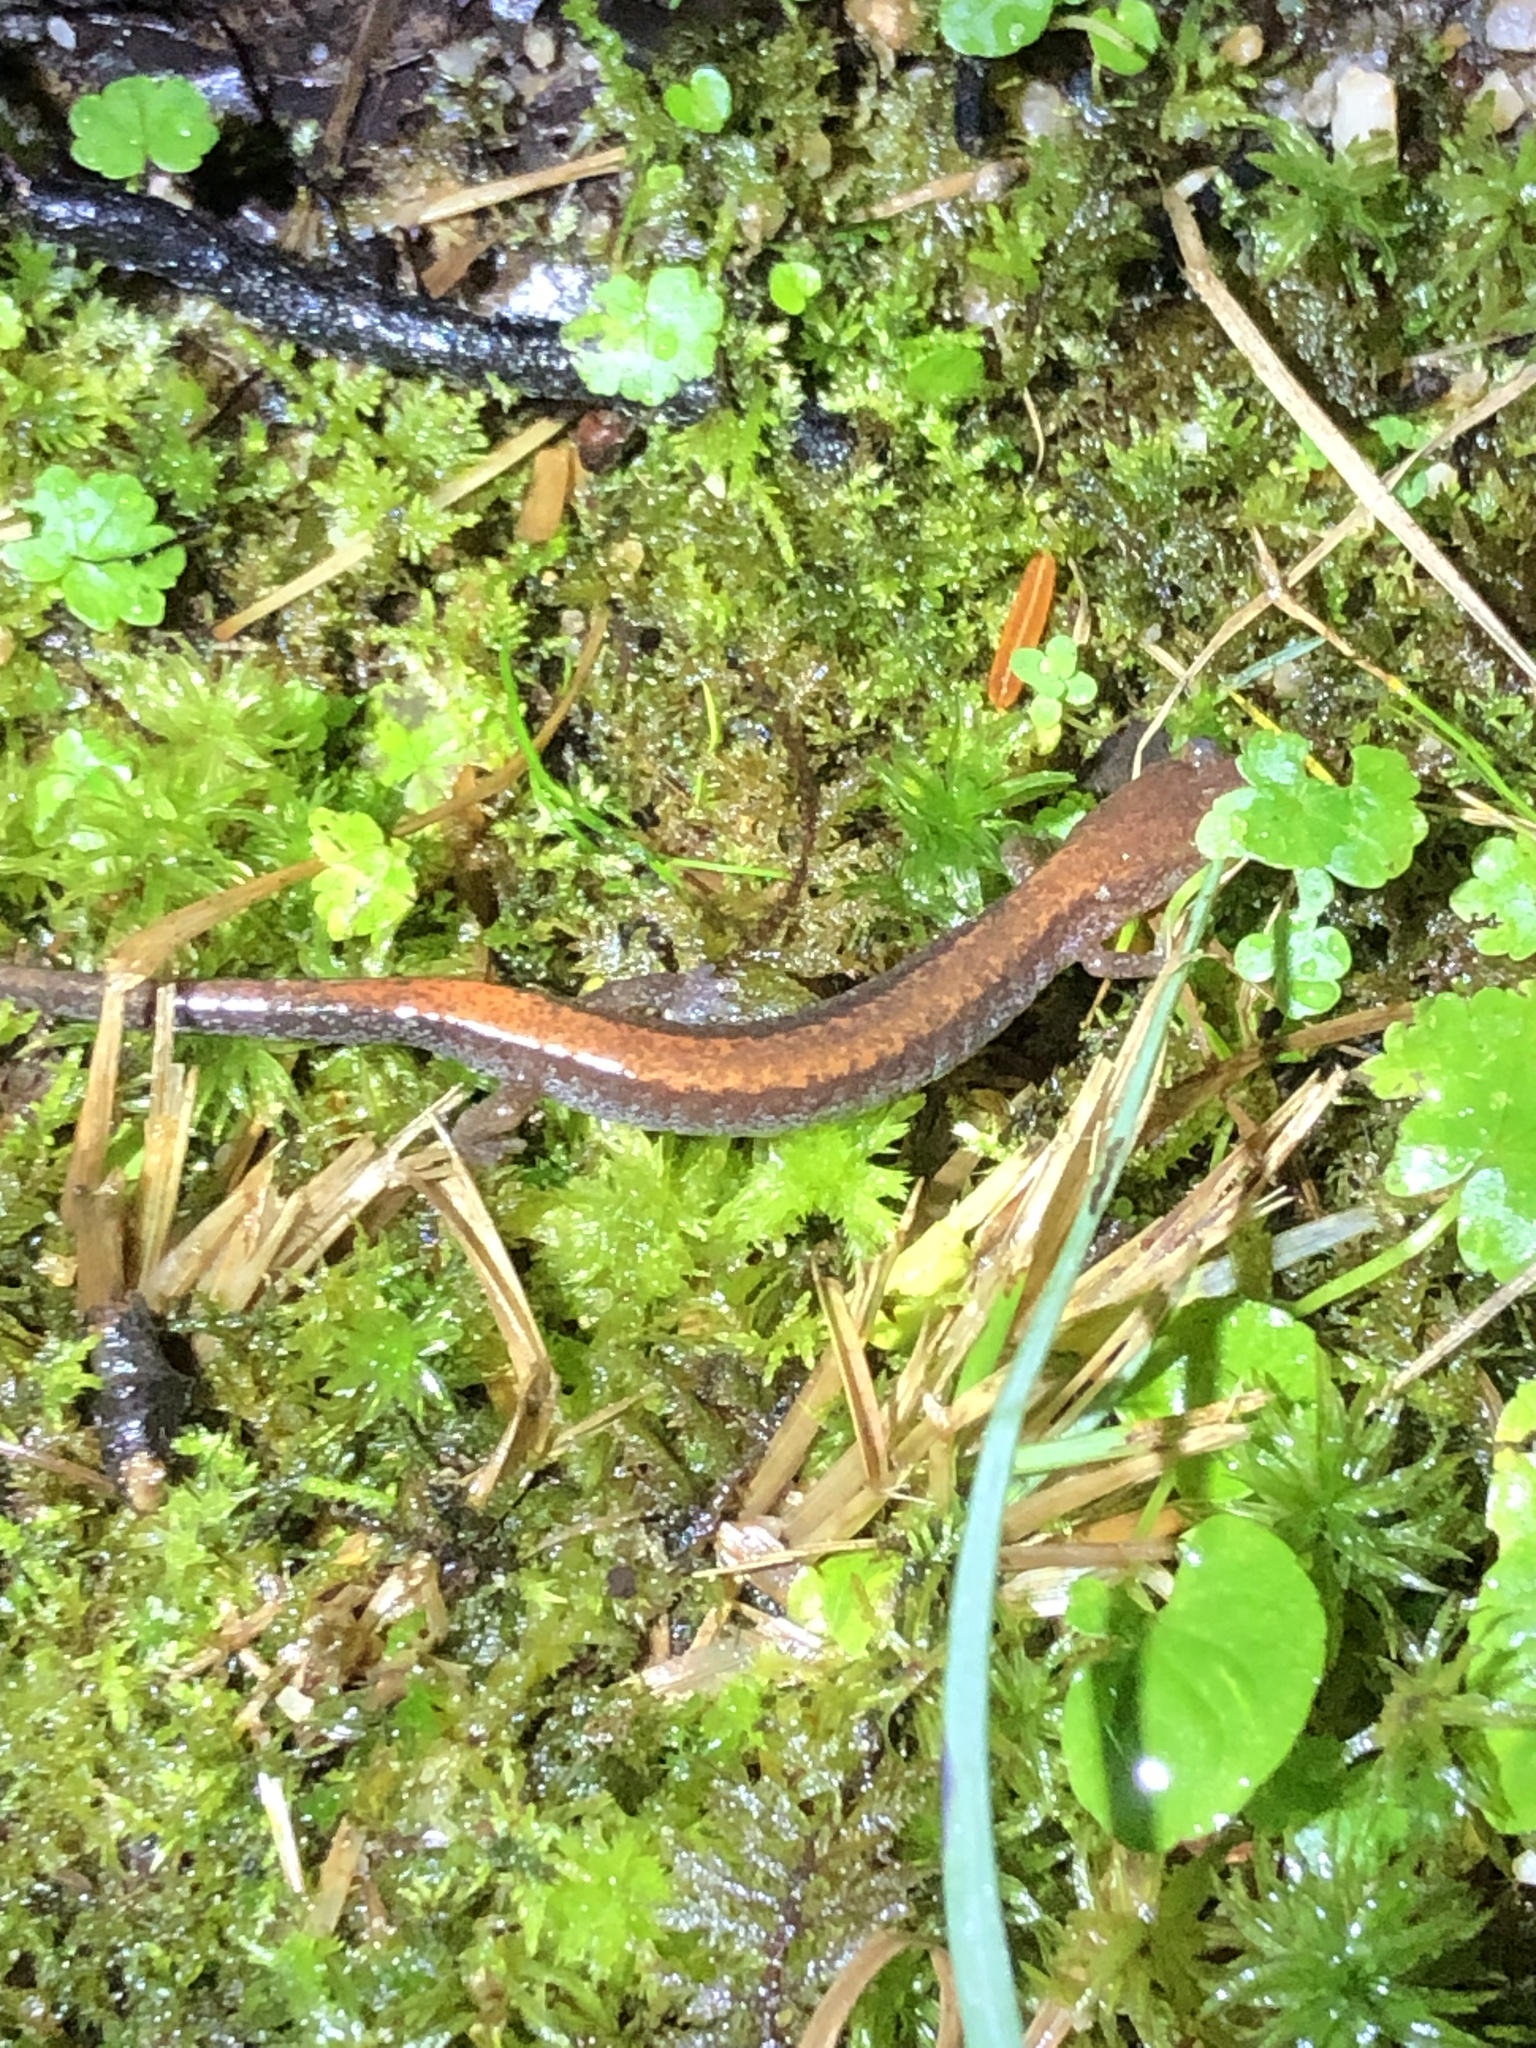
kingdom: Animalia
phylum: Chordata
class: Amphibia
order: Caudata
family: Plethodontidae
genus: Plethodon
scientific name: Plethodon cinereus
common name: Redback salamander
